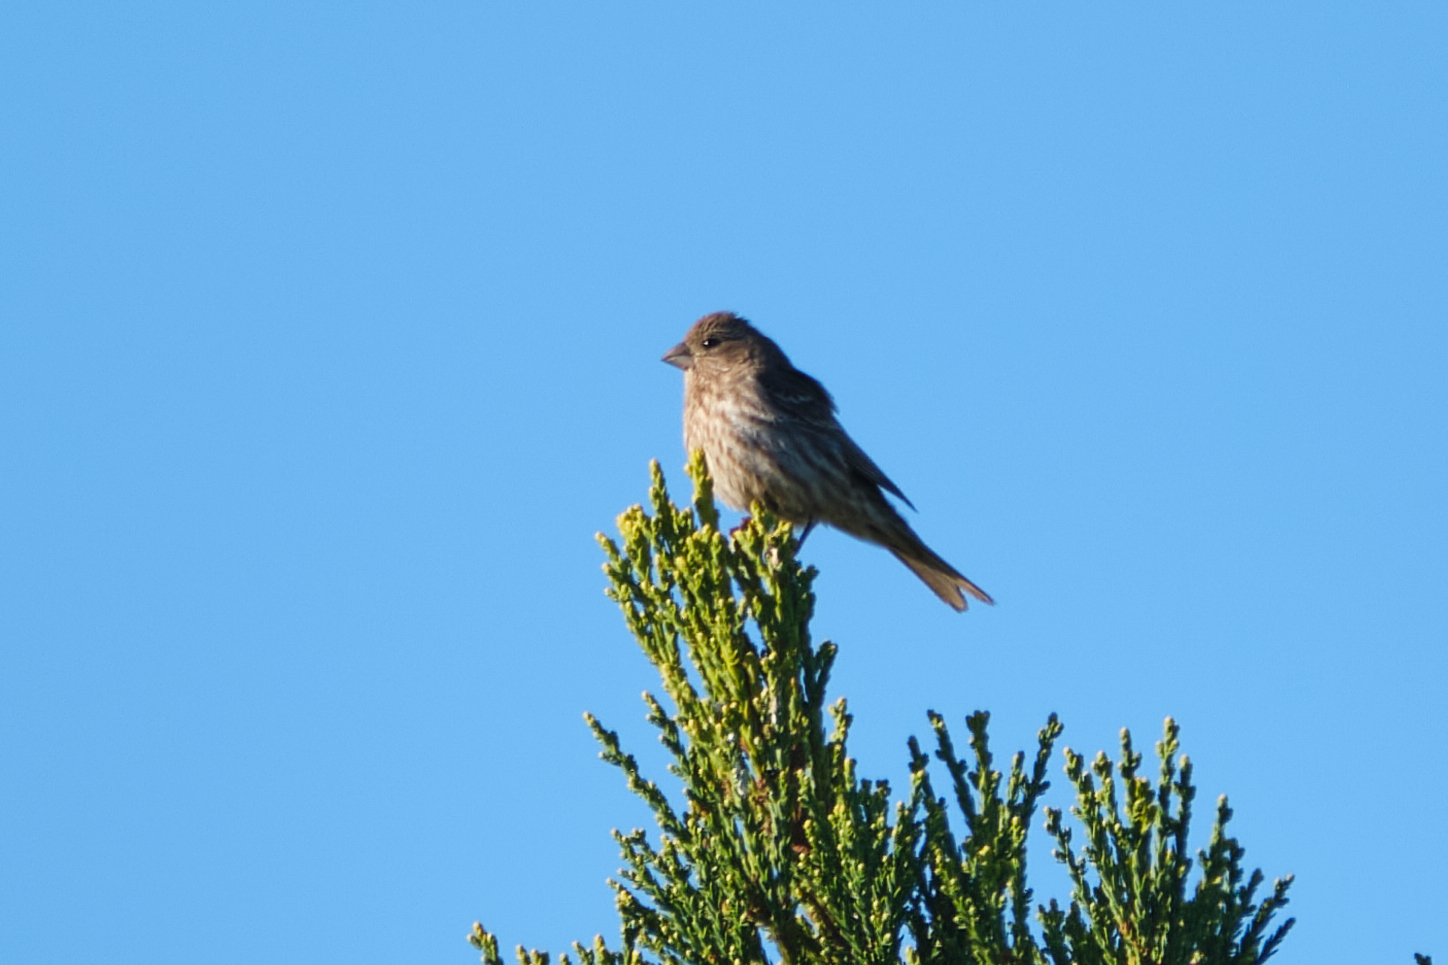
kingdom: Animalia
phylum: Chordata
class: Aves
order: Passeriformes
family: Fringillidae
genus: Haemorhous
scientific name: Haemorhous mexicanus
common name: House finch
